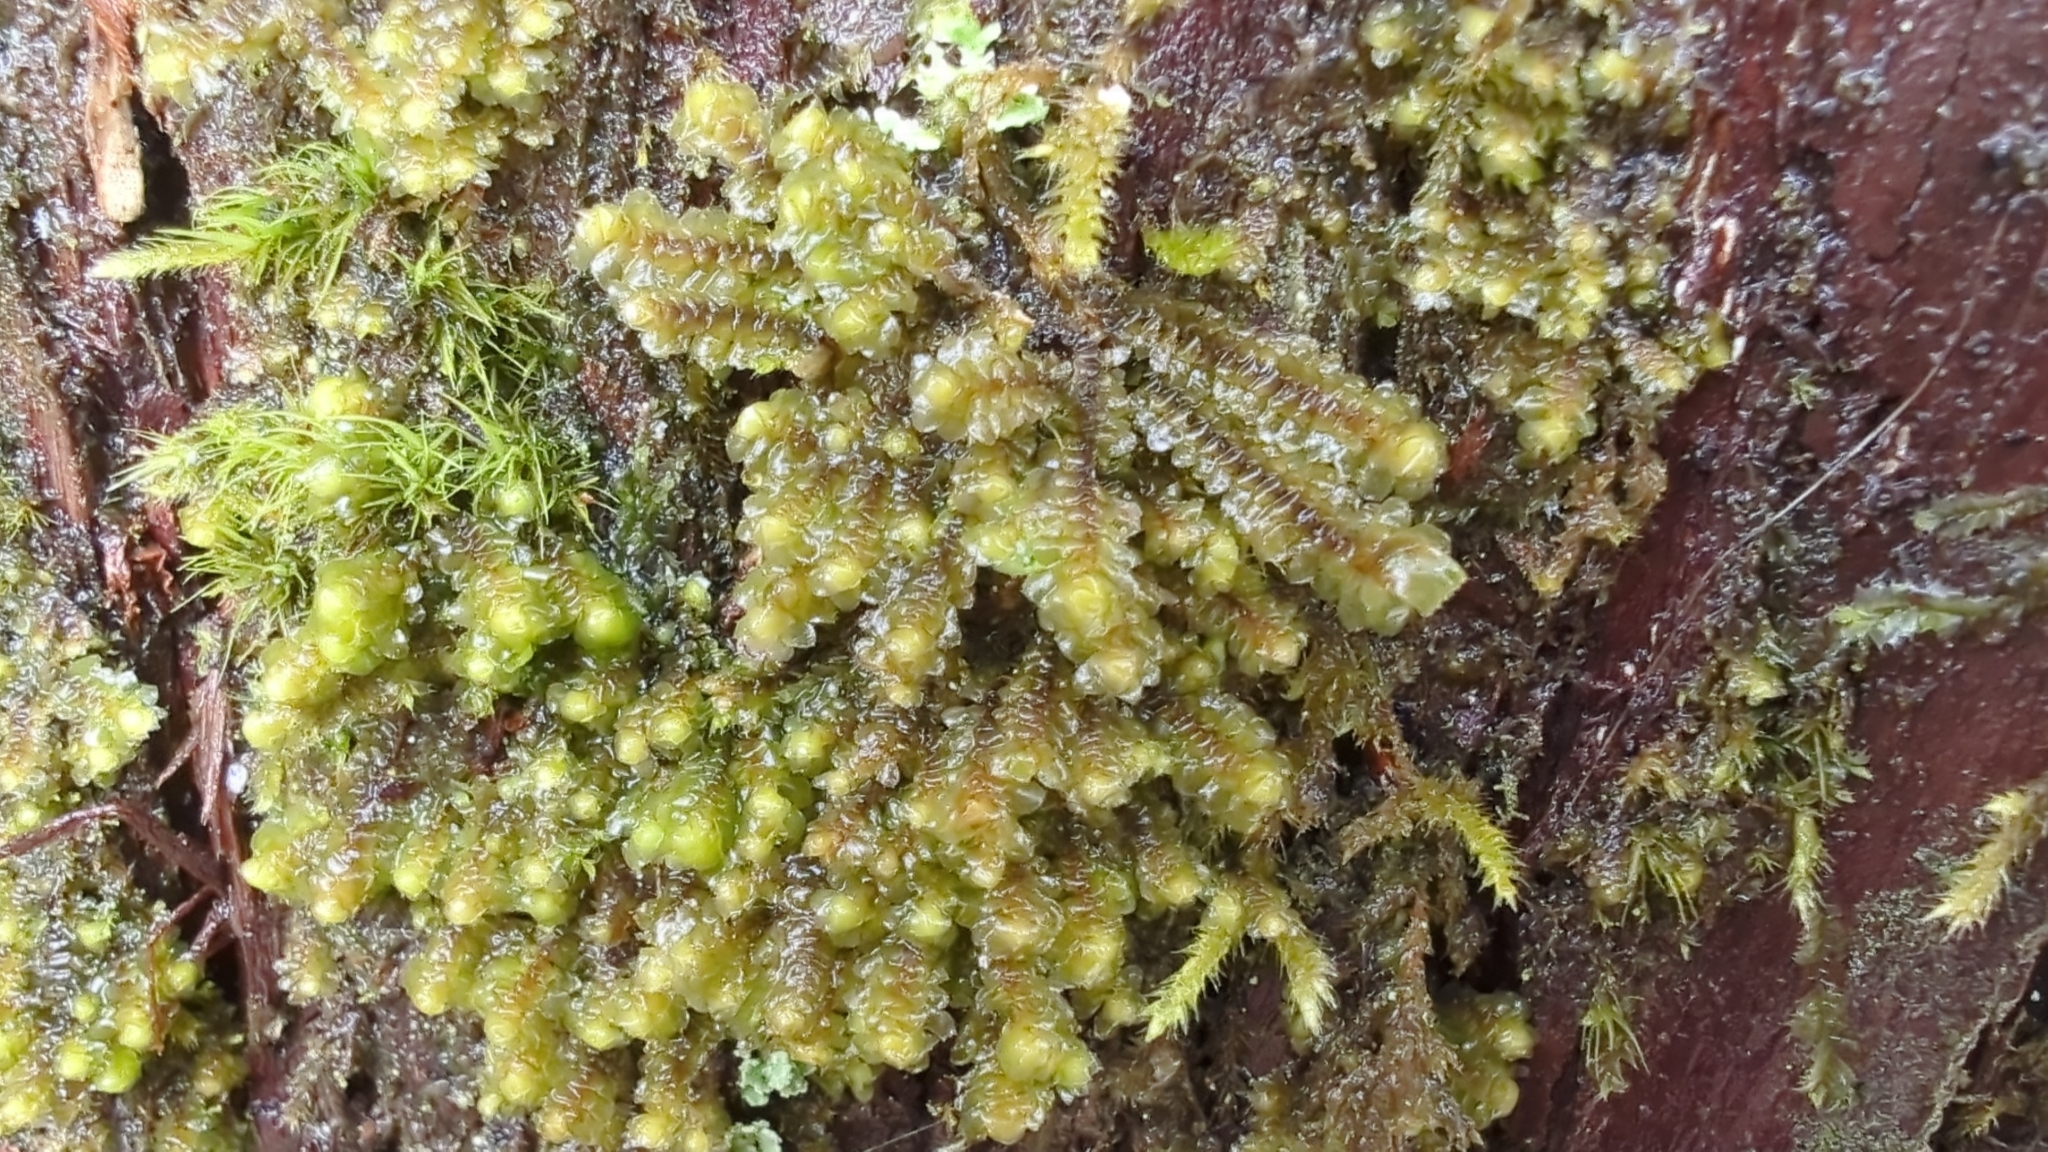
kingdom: Plantae
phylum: Marchantiophyta
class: Jungermanniopsida
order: Jungermanniales
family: Scapaniaceae
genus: Scapania
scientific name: Scapania bolanderi
